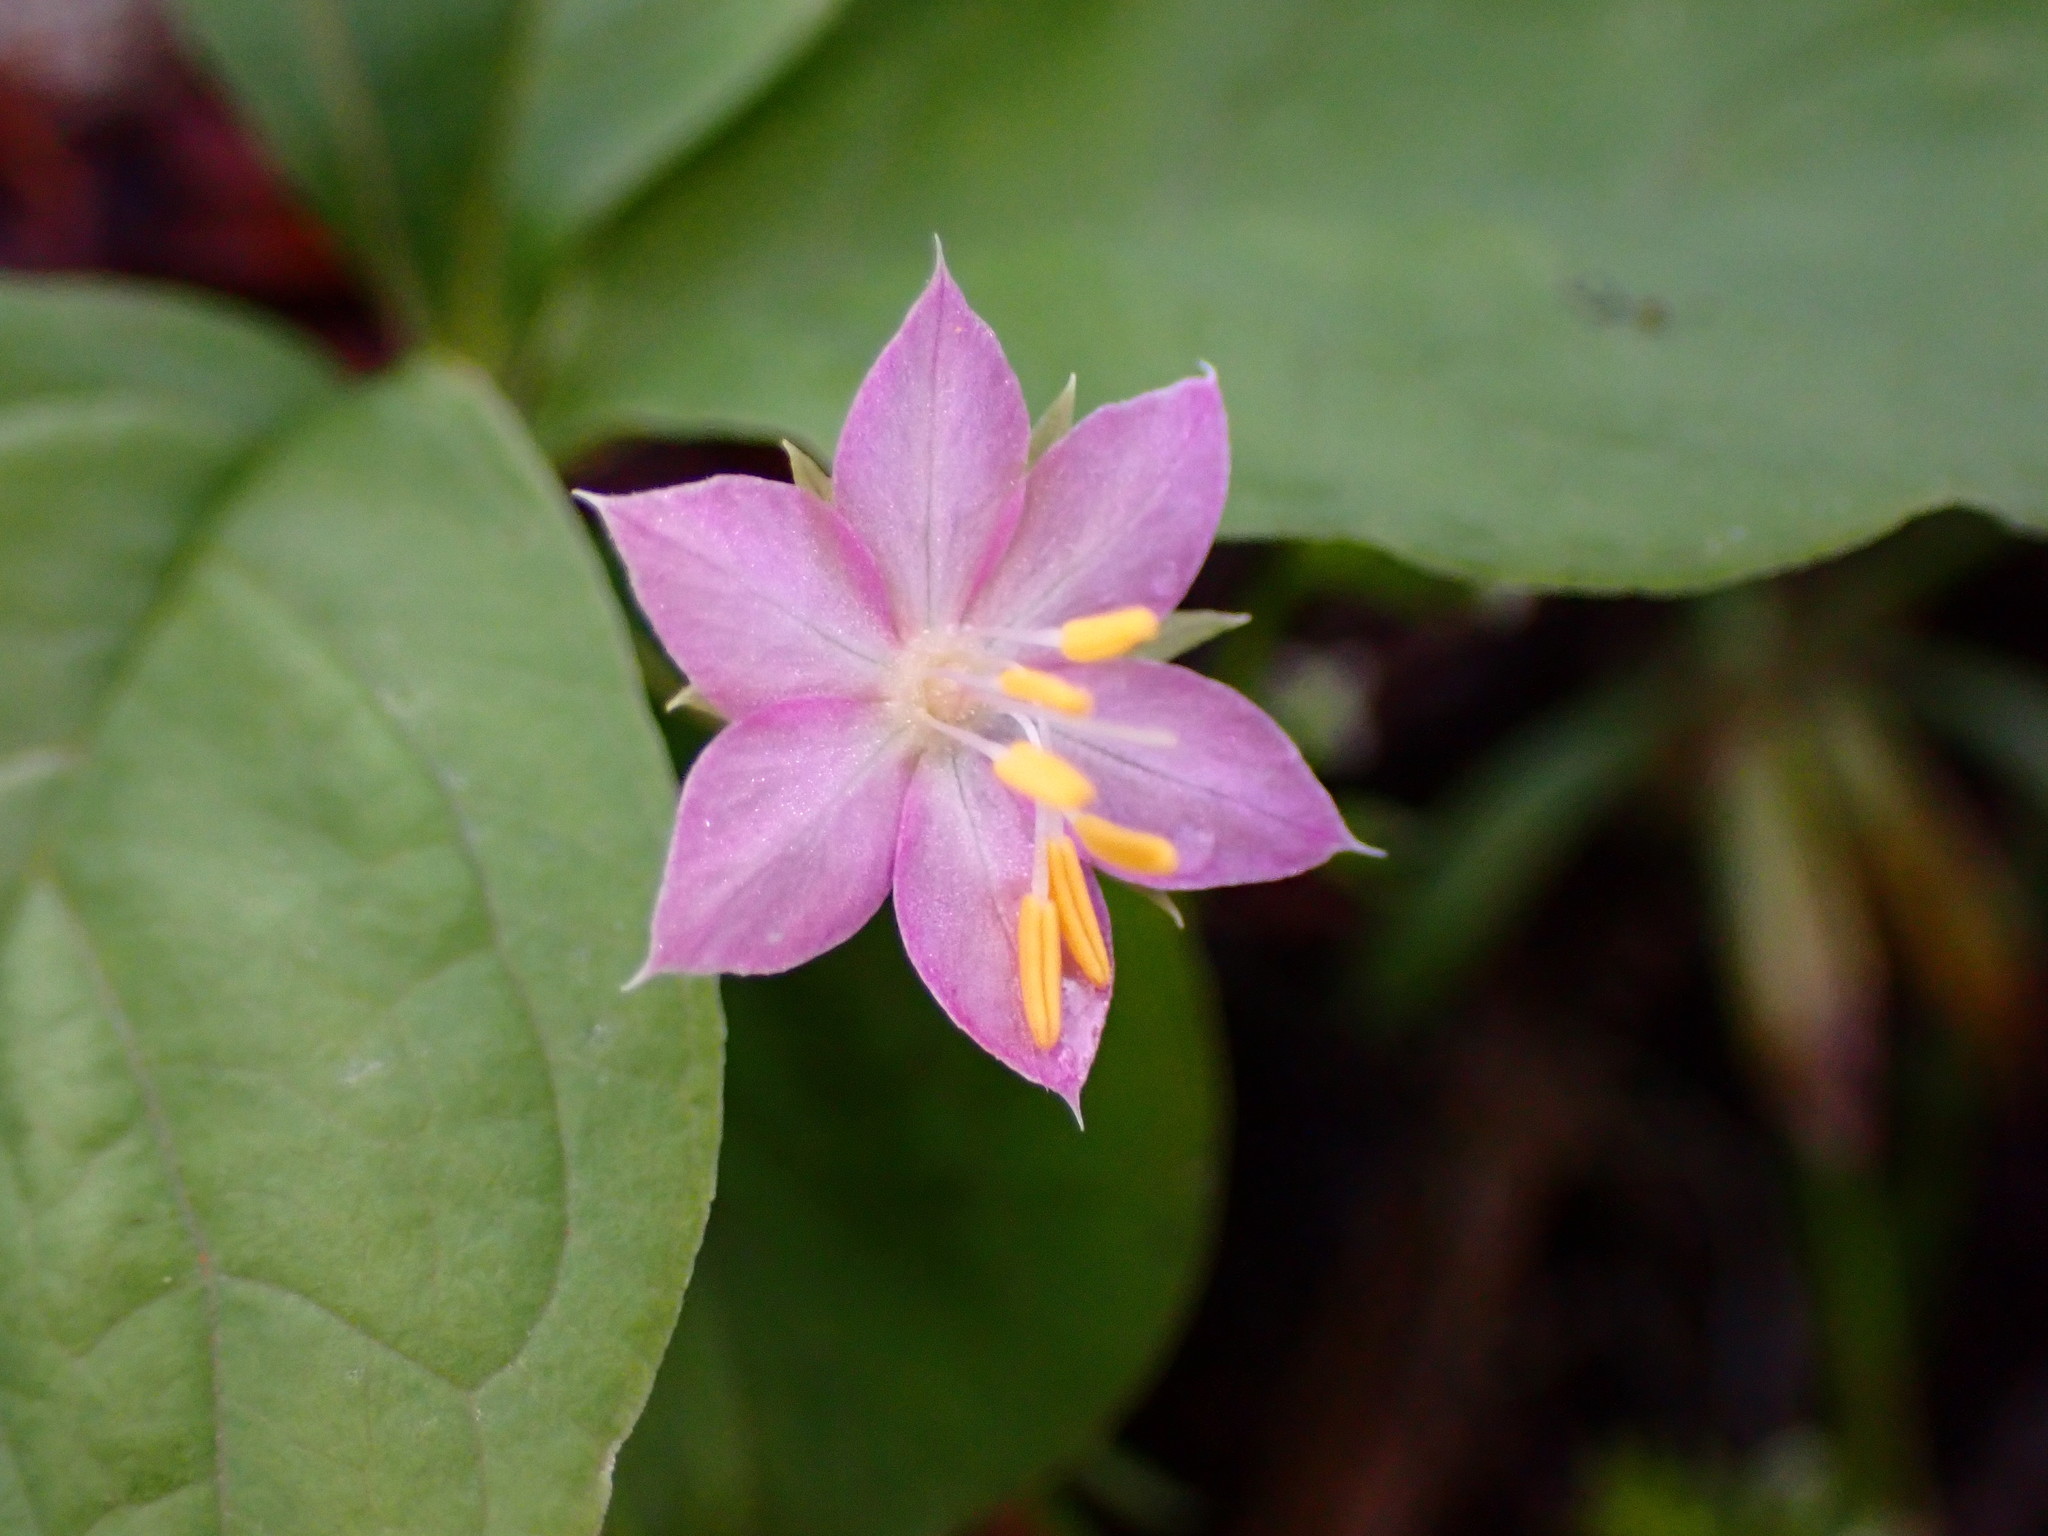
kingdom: Plantae
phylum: Tracheophyta
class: Magnoliopsida
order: Ericales
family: Primulaceae
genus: Lysimachia
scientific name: Lysimachia latifolia
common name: Pacific starflower
